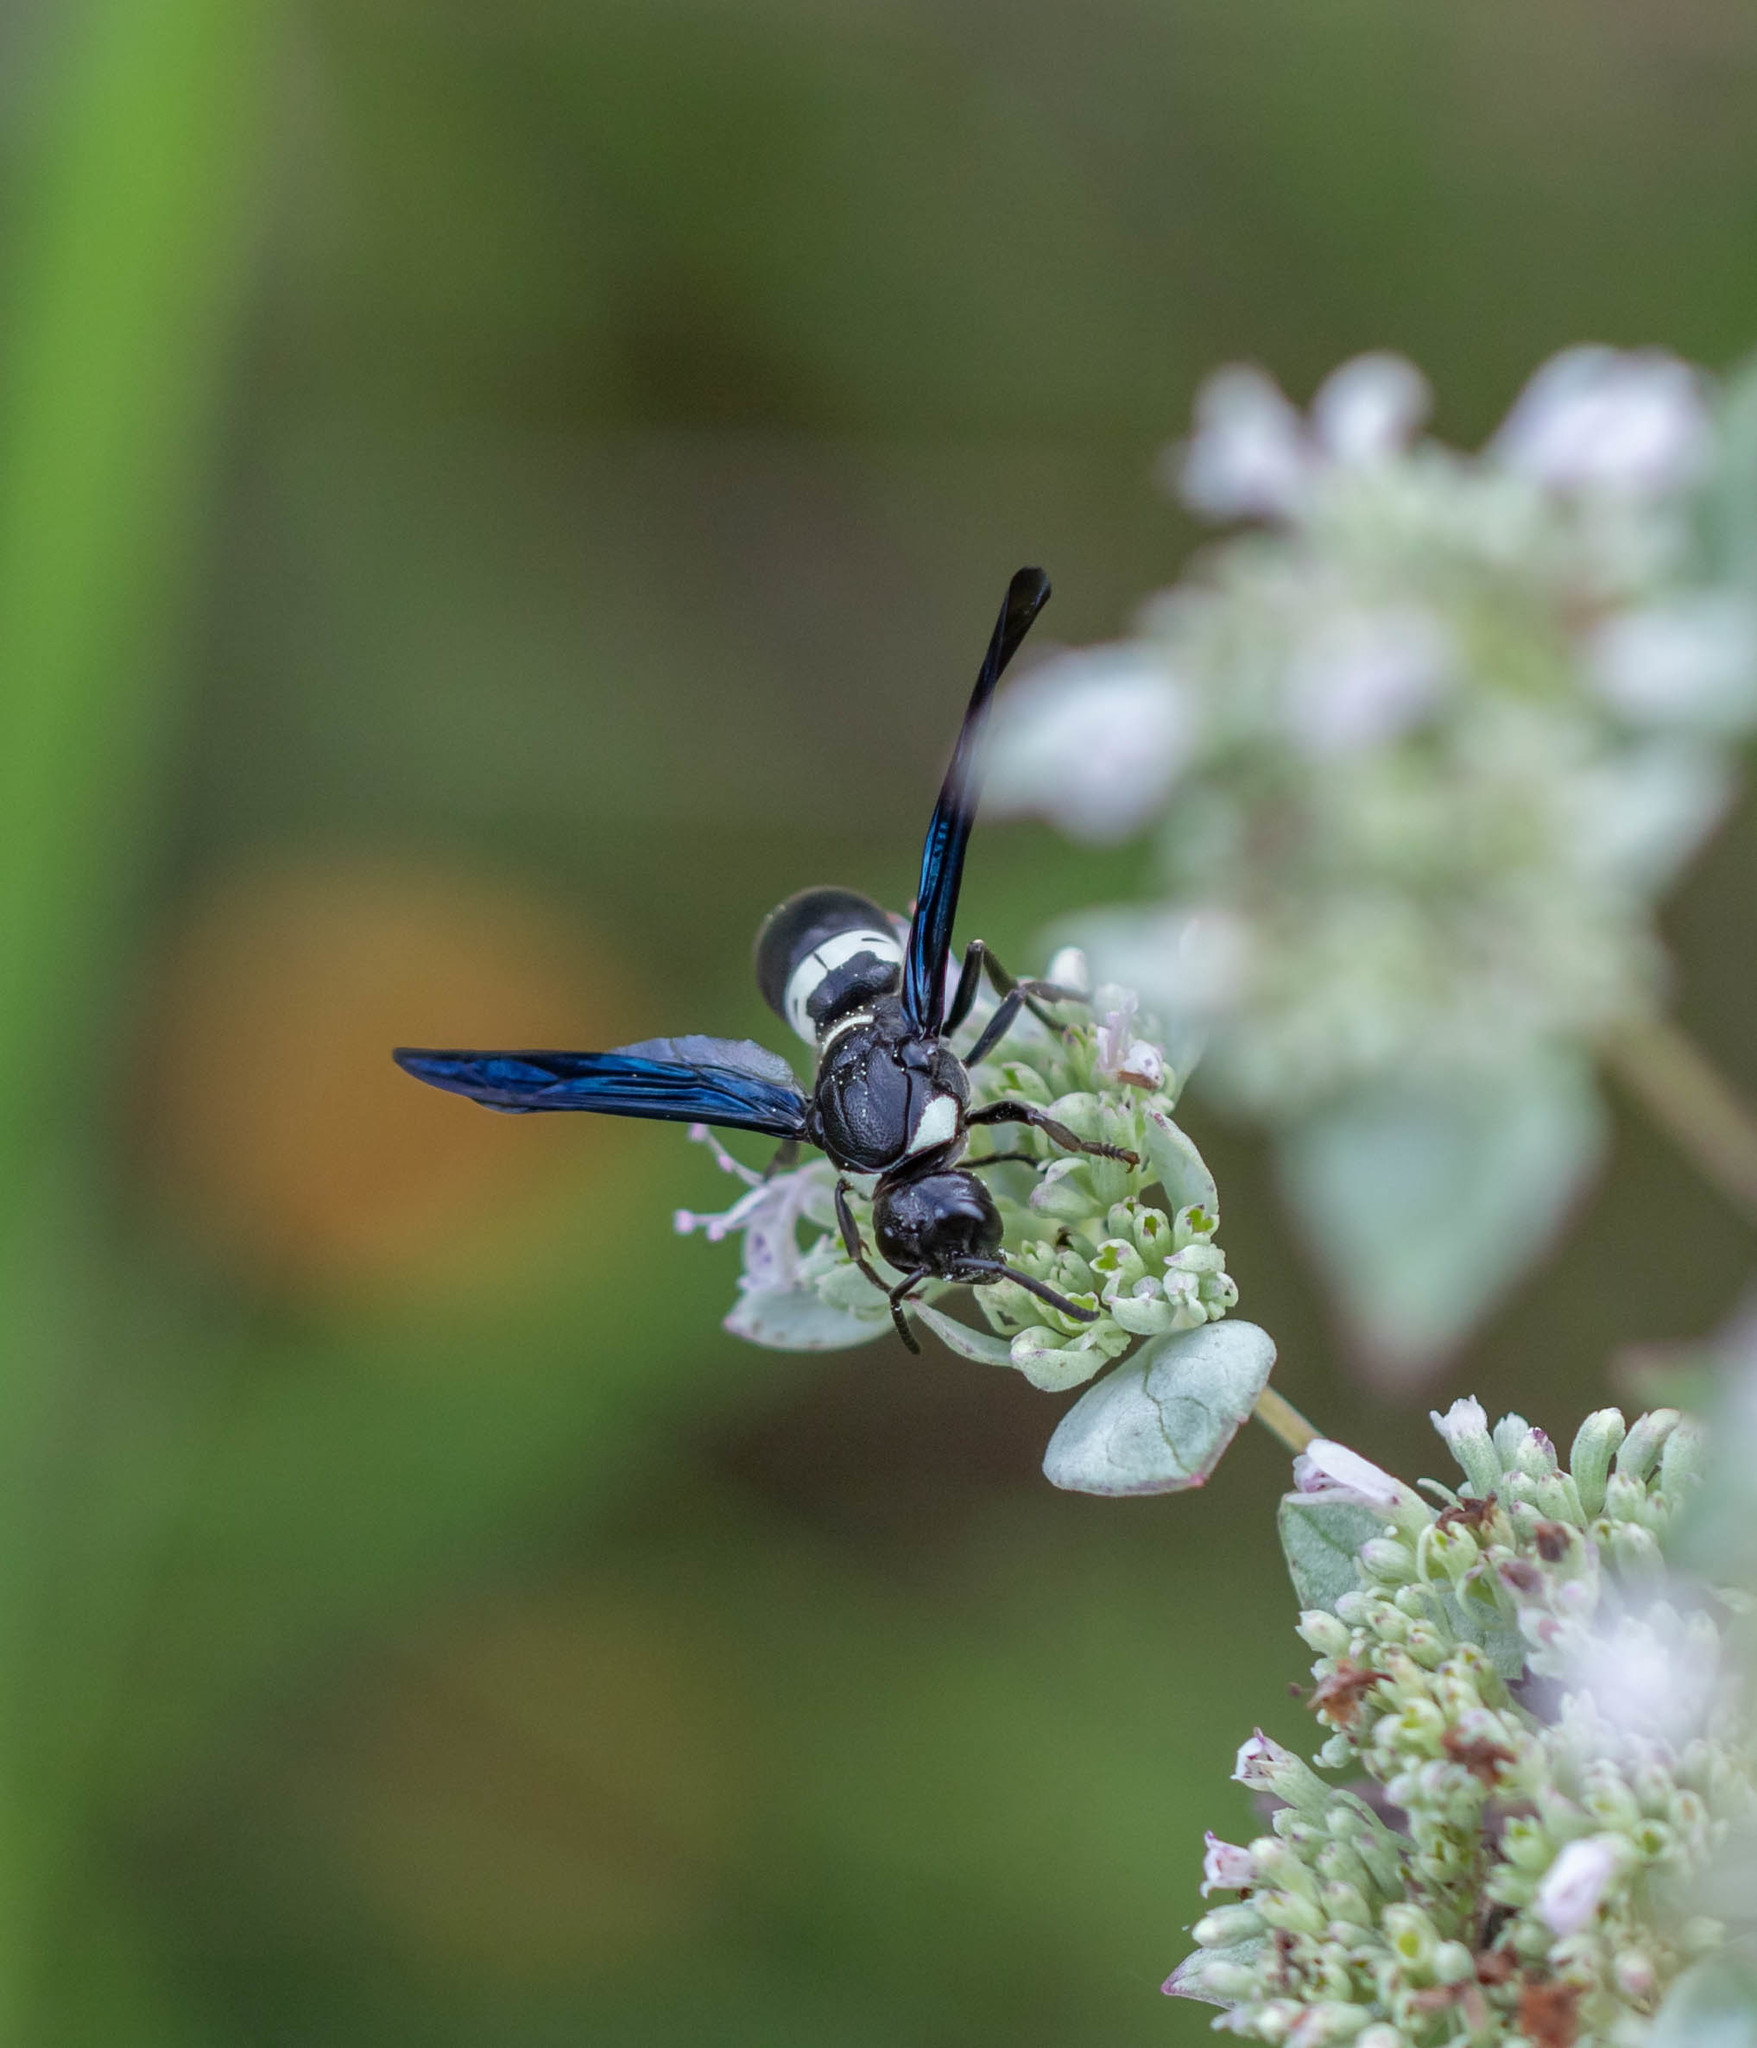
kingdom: Animalia
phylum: Arthropoda
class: Insecta
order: Hymenoptera
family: Eumenidae
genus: Monobia
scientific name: Monobia quadridens
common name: Four-toothed mason wasp
